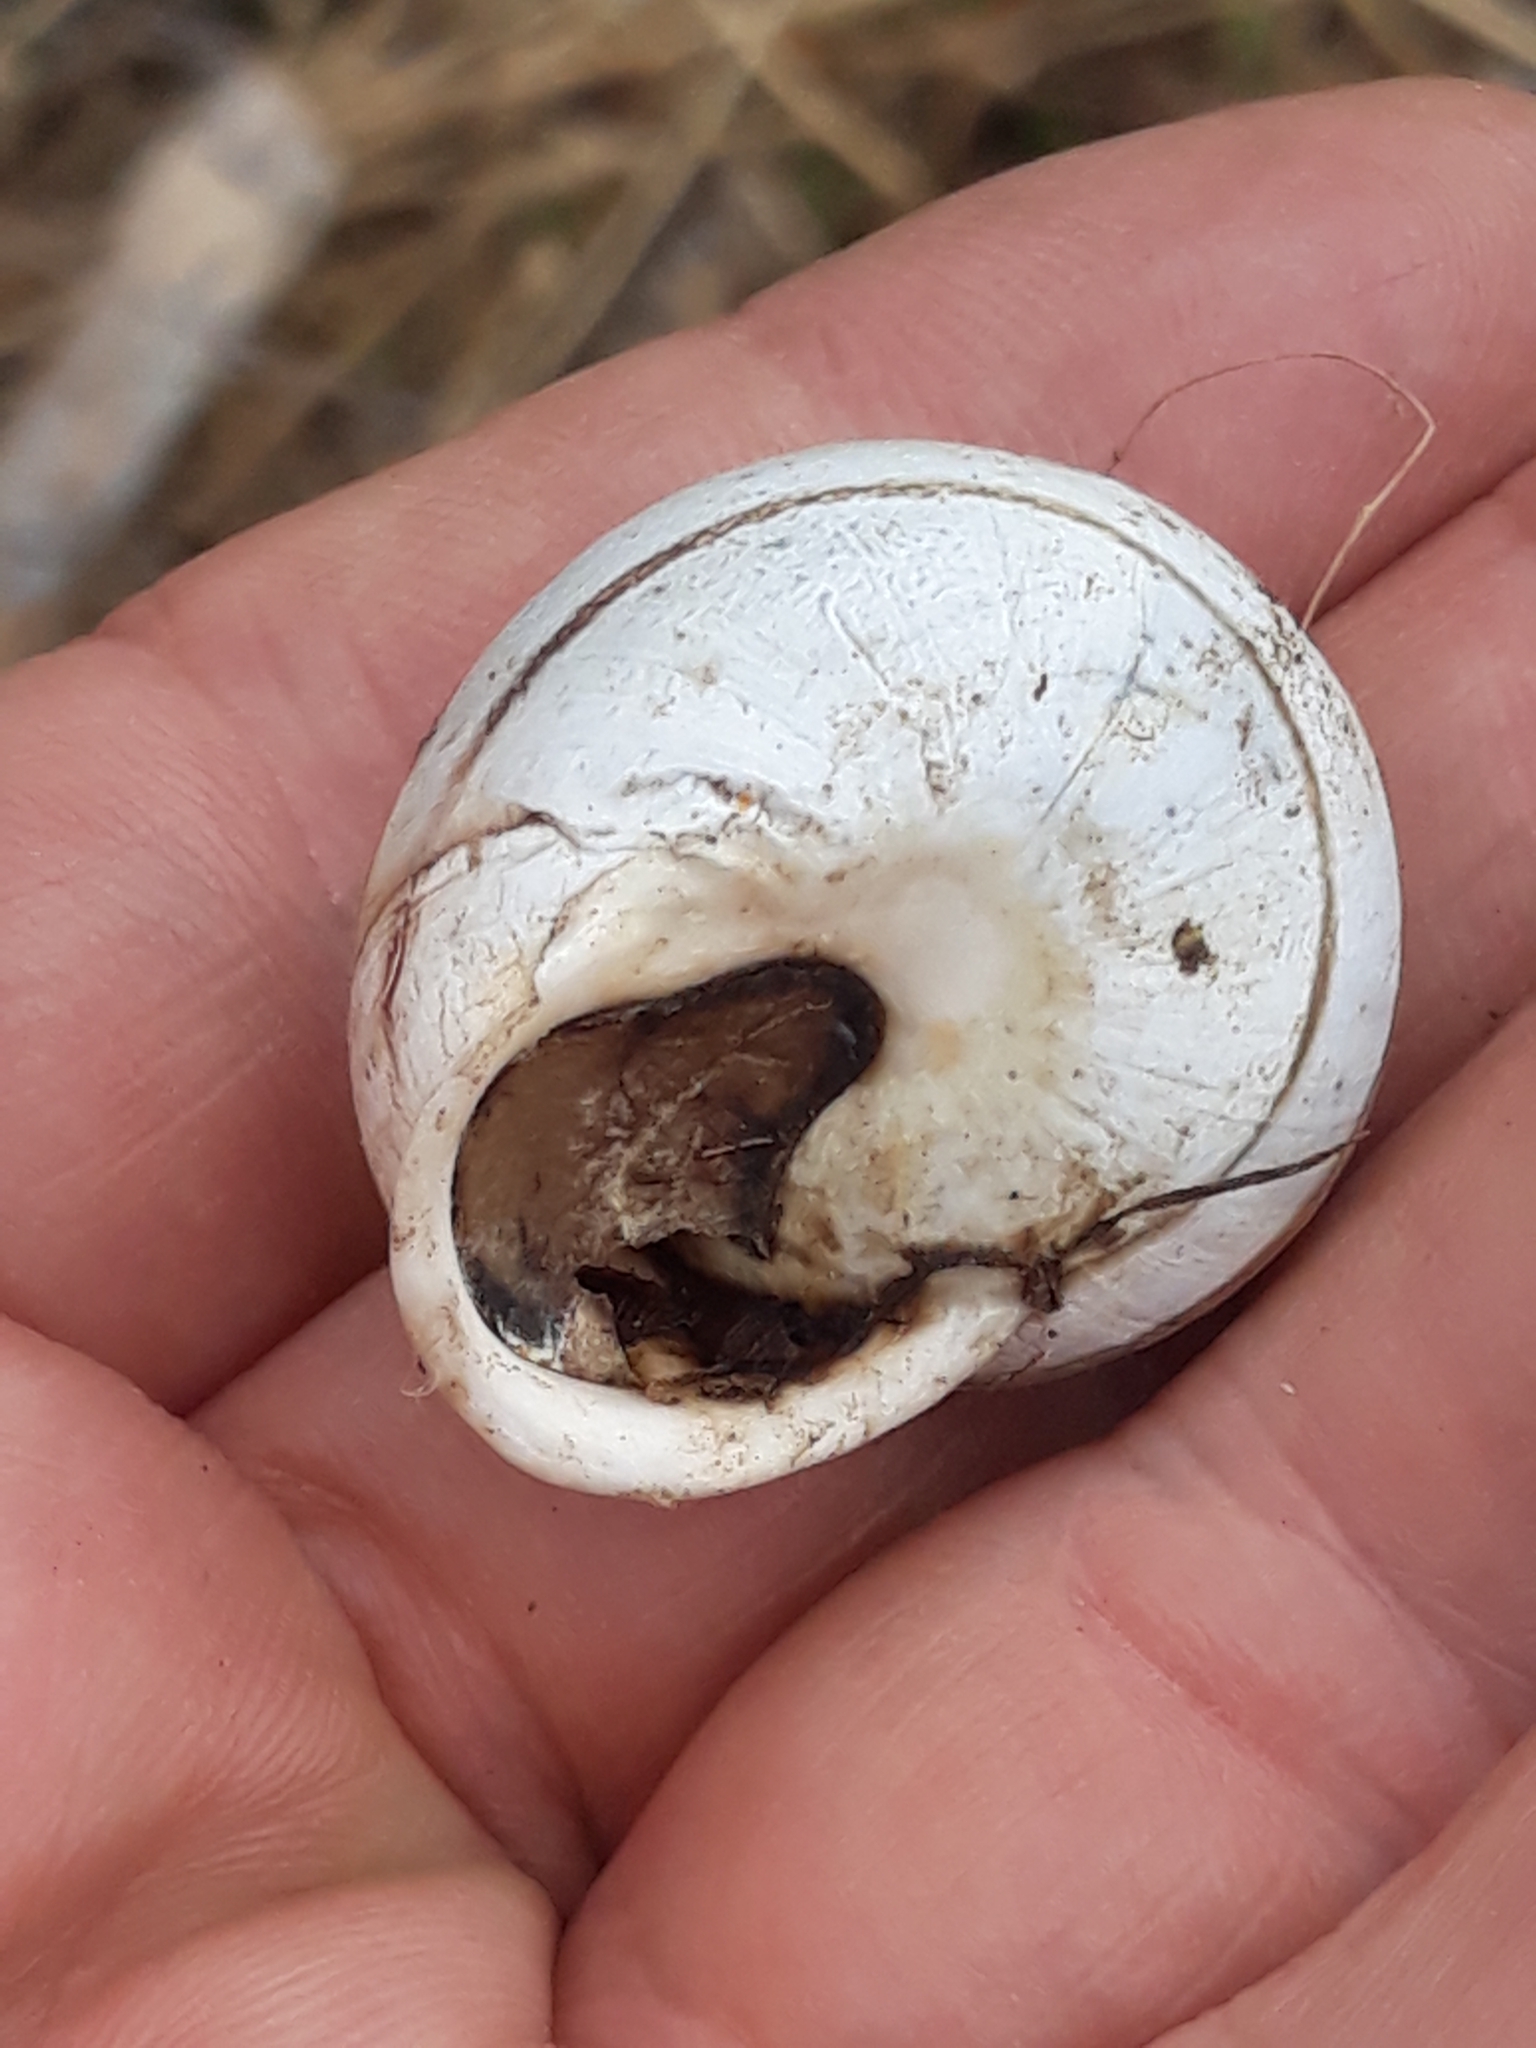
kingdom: Animalia
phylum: Mollusca
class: Gastropoda
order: Stylommatophora
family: Helicidae
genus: Eobania
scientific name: Eobania constantina
